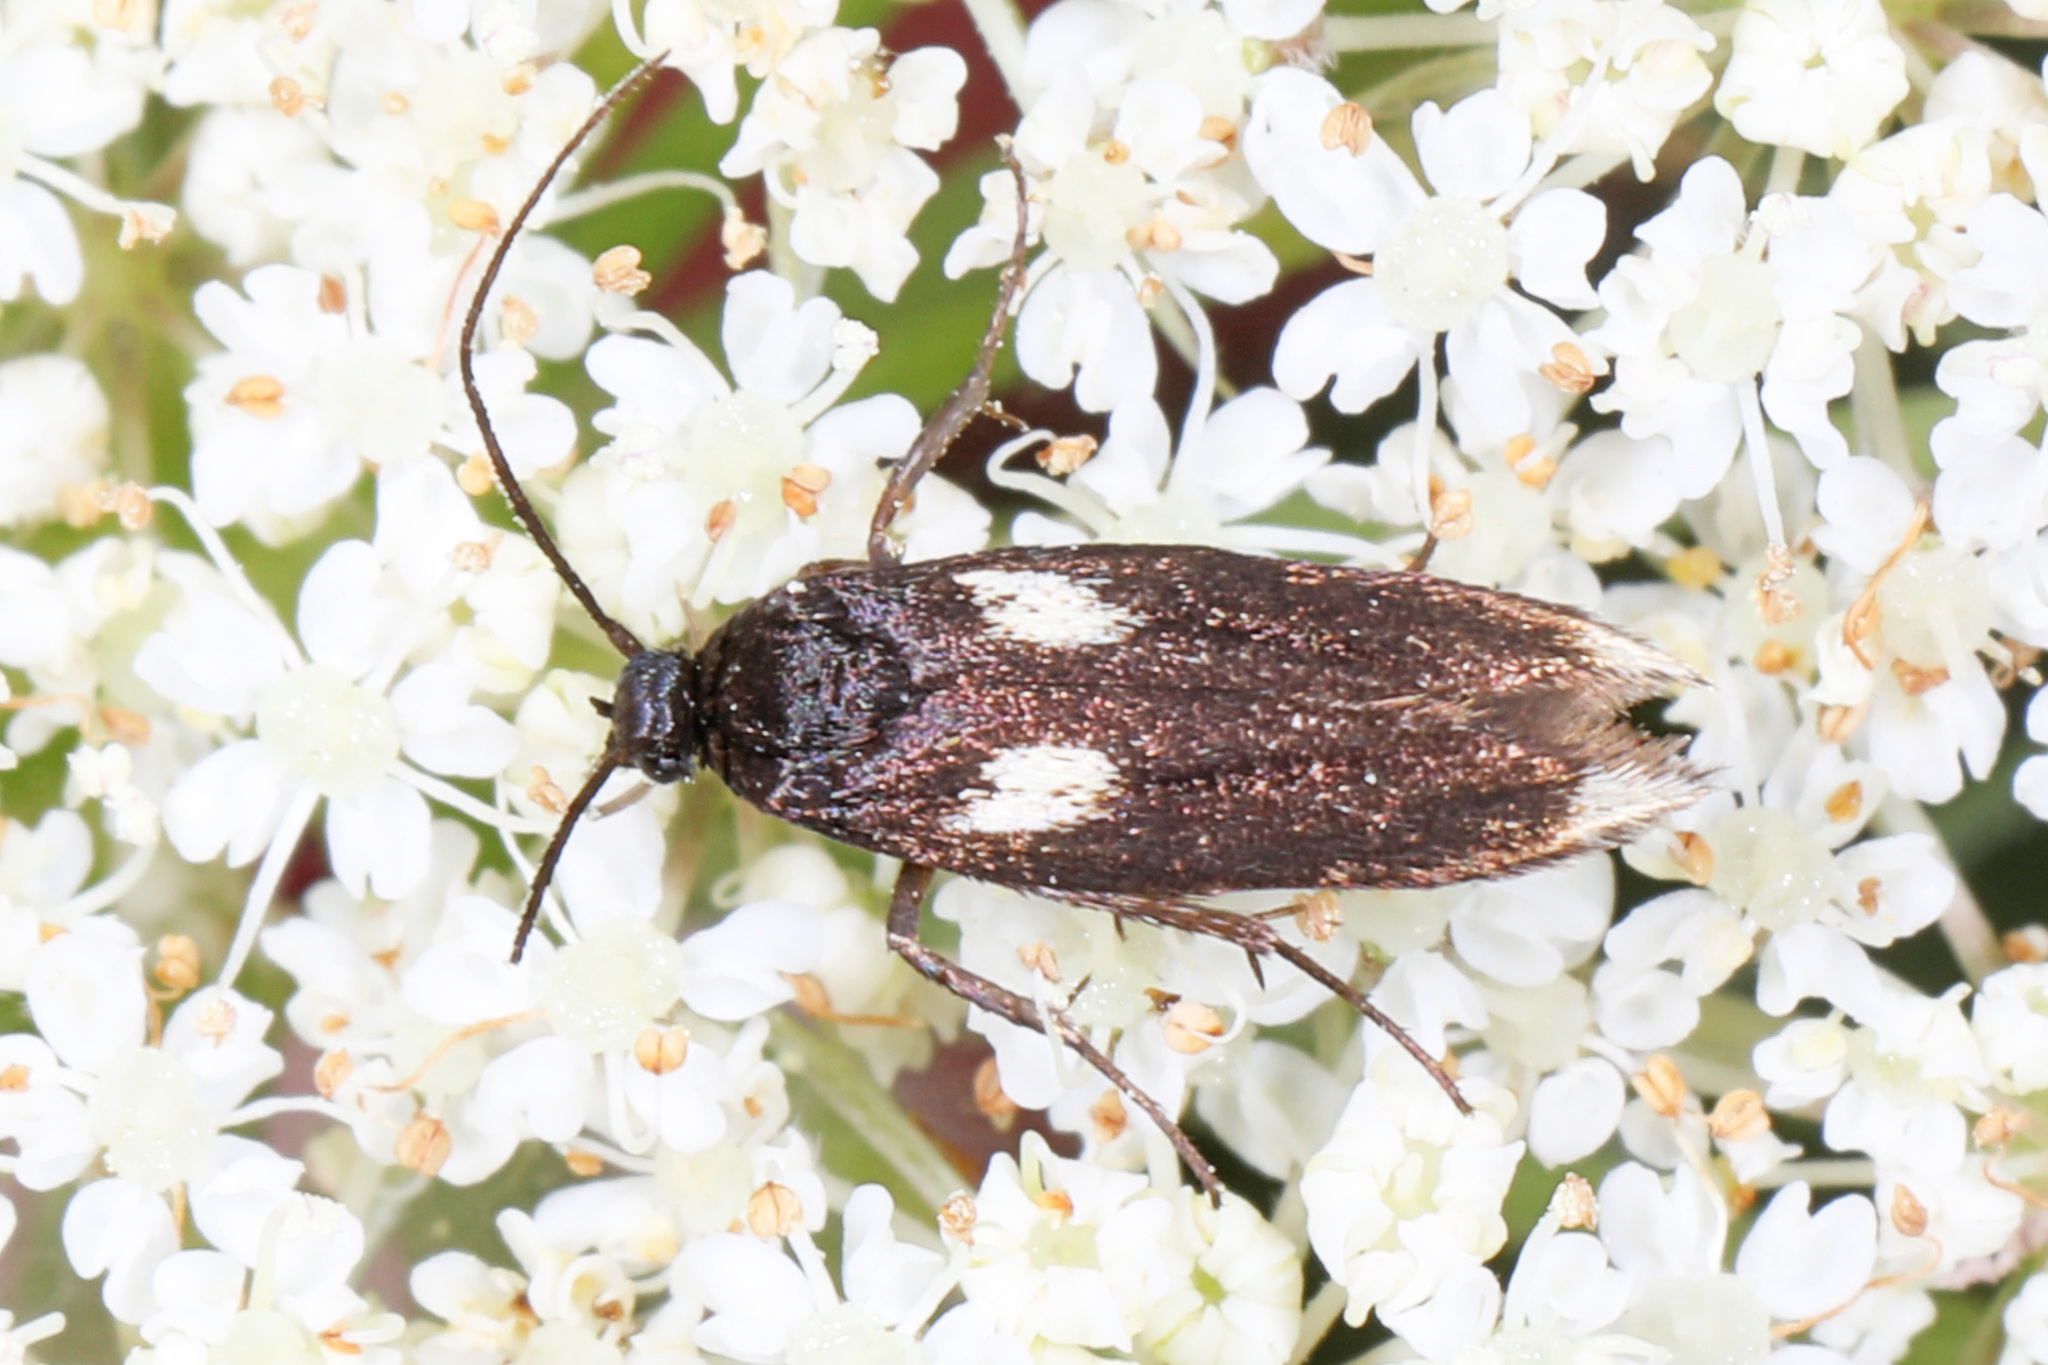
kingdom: Animalia
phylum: Arthropoda
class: Insecta
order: Lepidoptera
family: Scythrididae
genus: Scythris
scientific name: Scythris sinensis
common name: Kentish owlet
